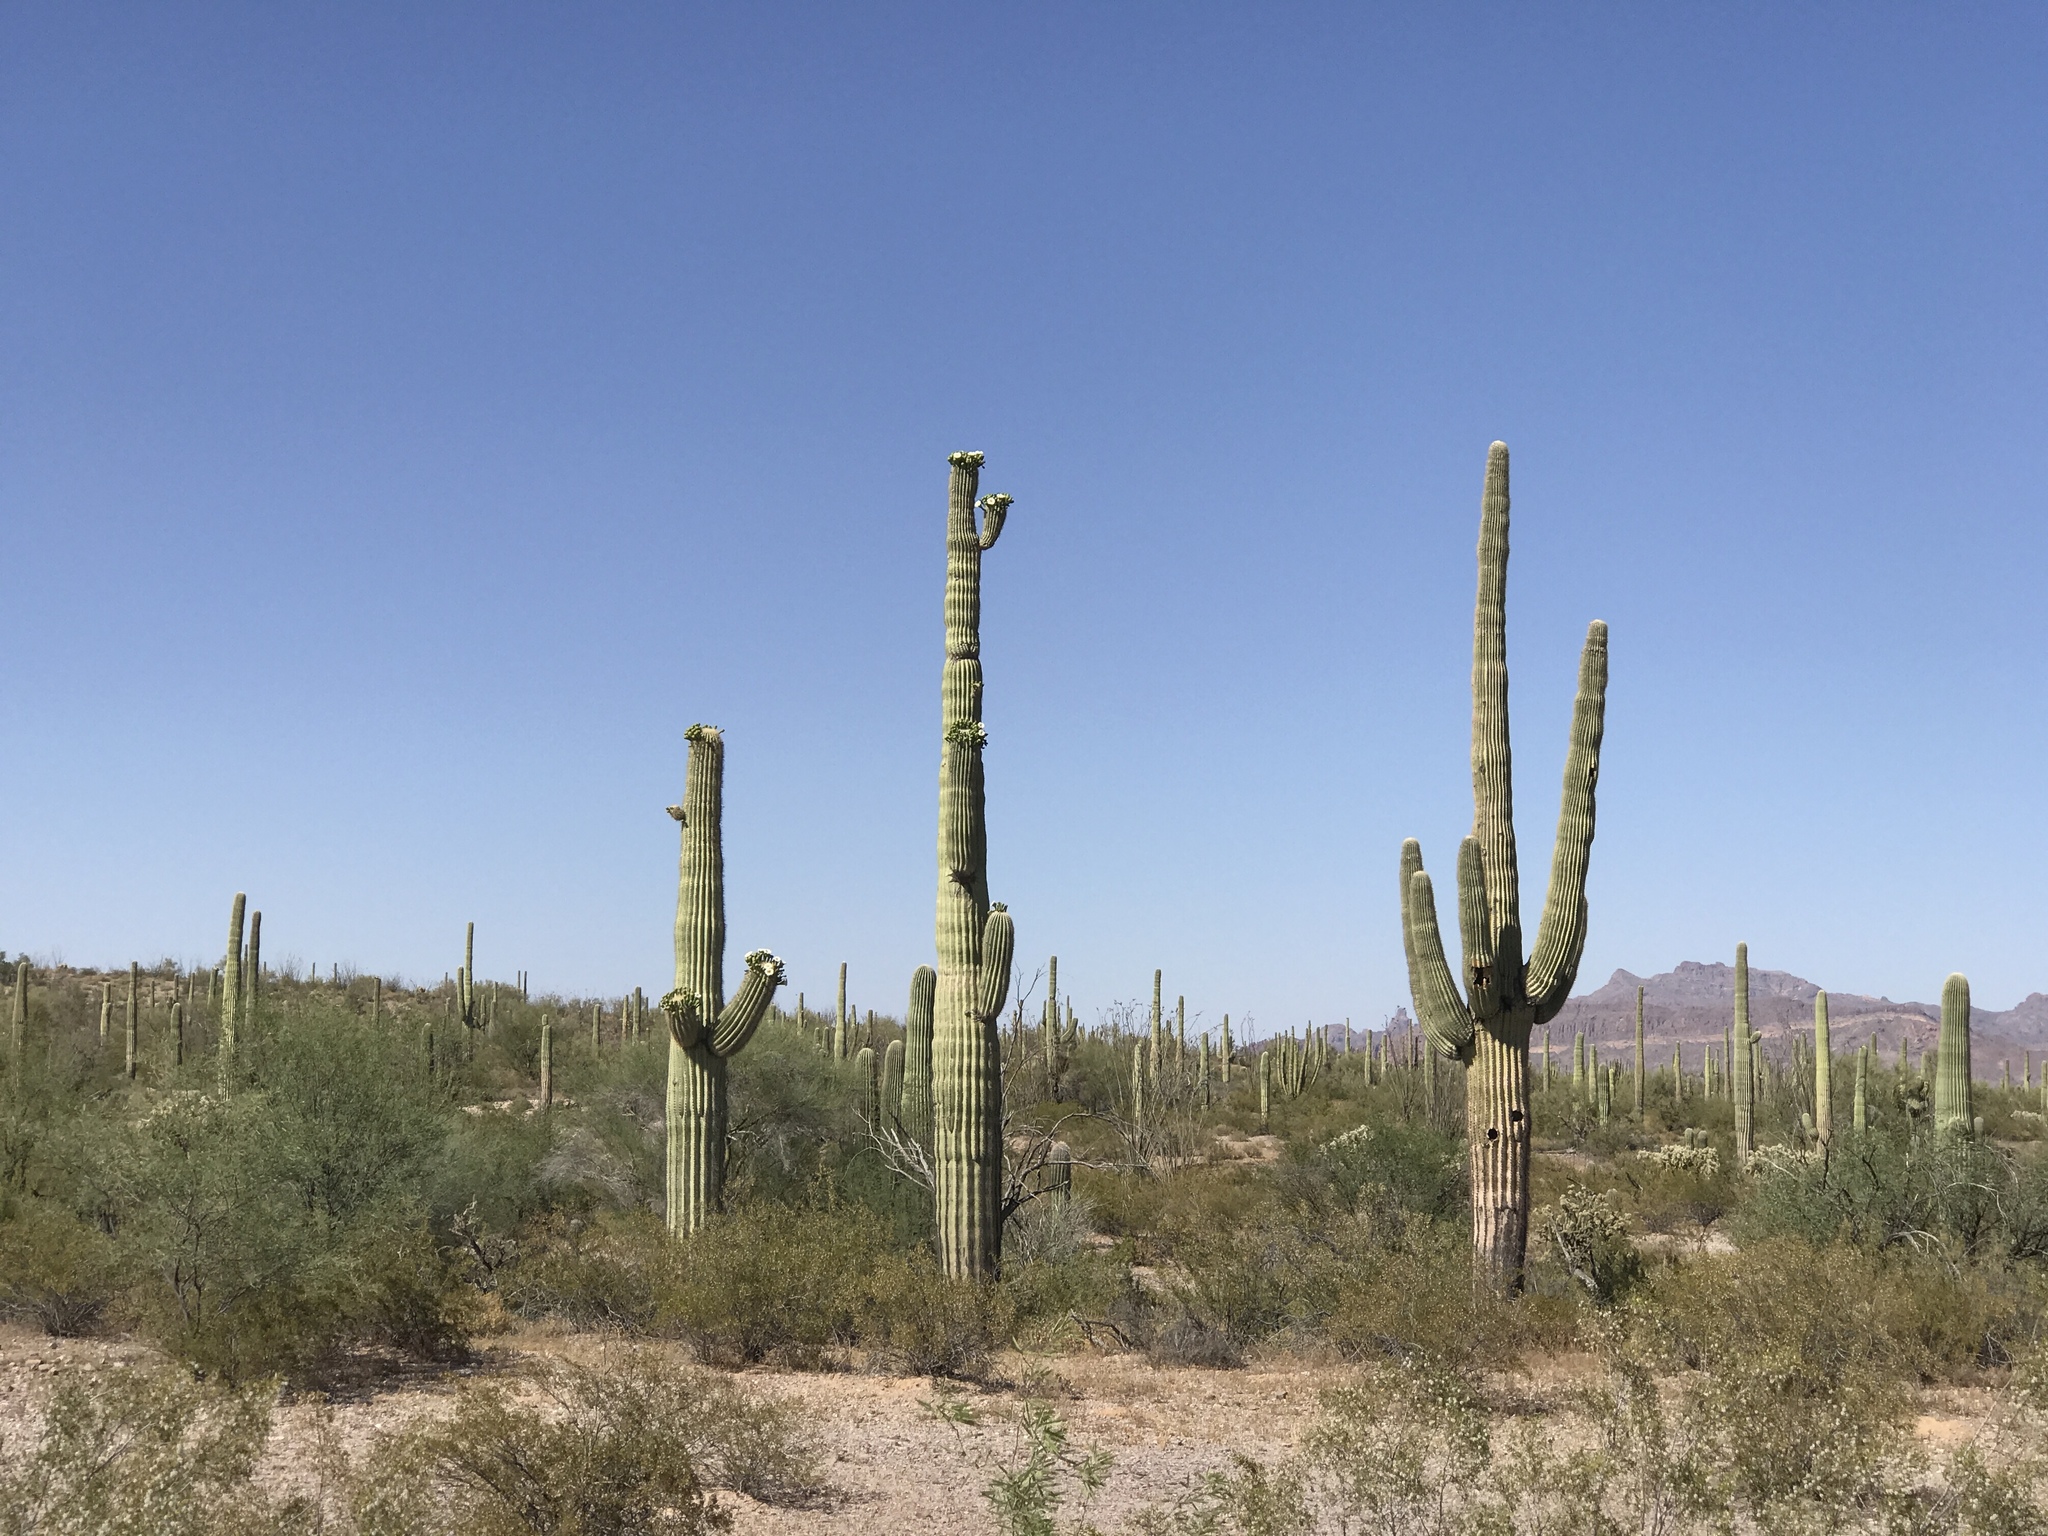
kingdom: Plantae
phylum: Tracheophyta
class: Magnoliopsida
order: Caryophyllales
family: Cactaceae
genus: Carnegiea
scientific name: Carnegiea gigantea
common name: Saguaro
